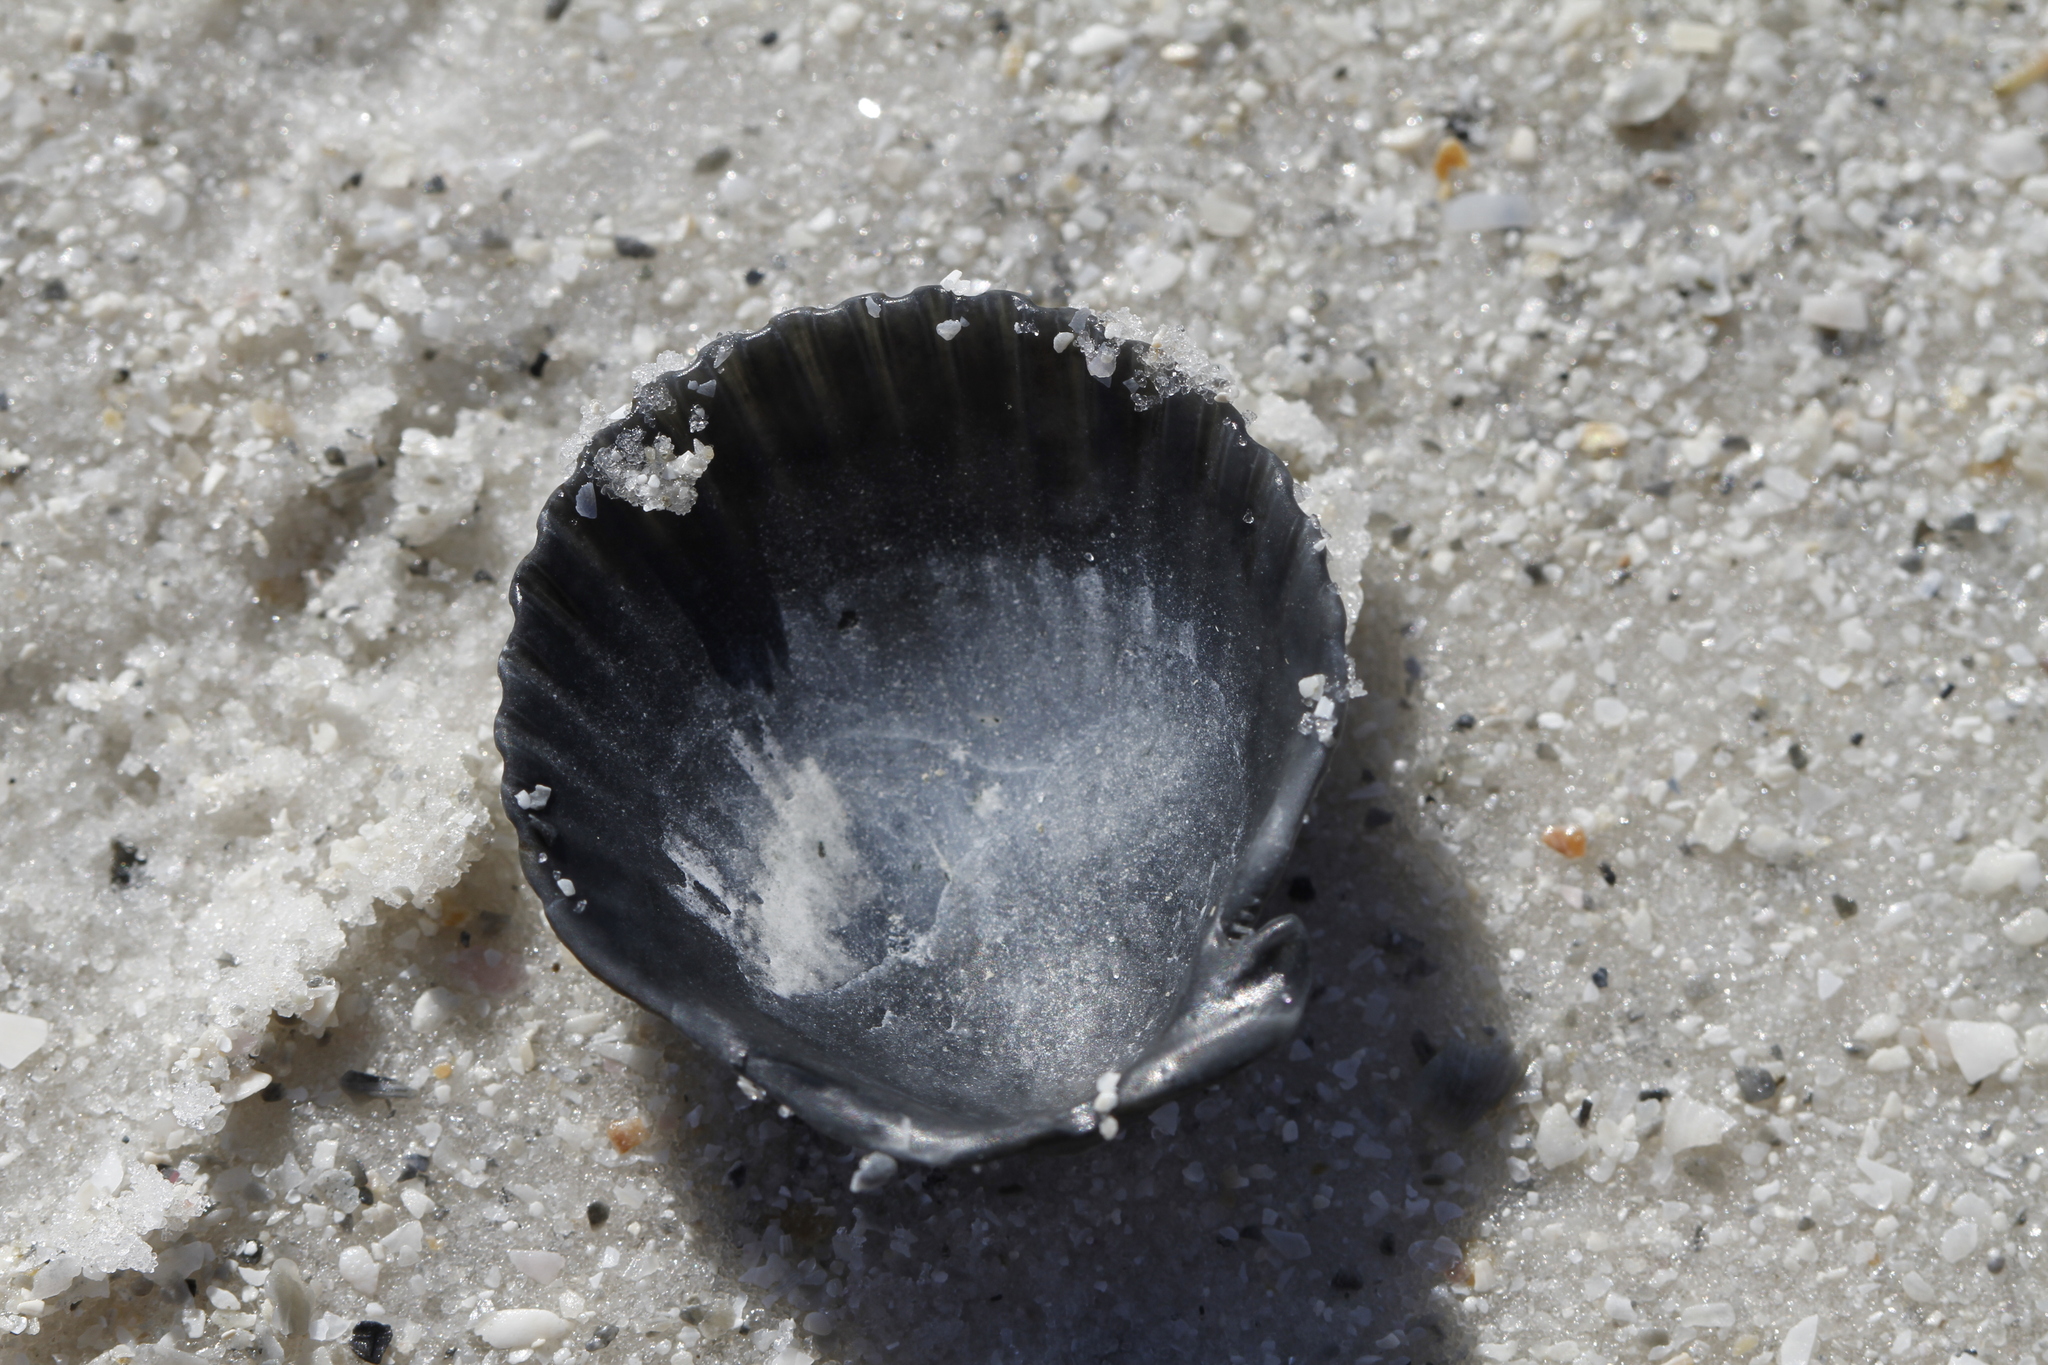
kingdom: Animalia
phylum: Mollusca
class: Bivalvia
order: Pectinida
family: Pectinidae
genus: Argopecten
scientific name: Argopecten irradians
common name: Atlantic bay scallop
